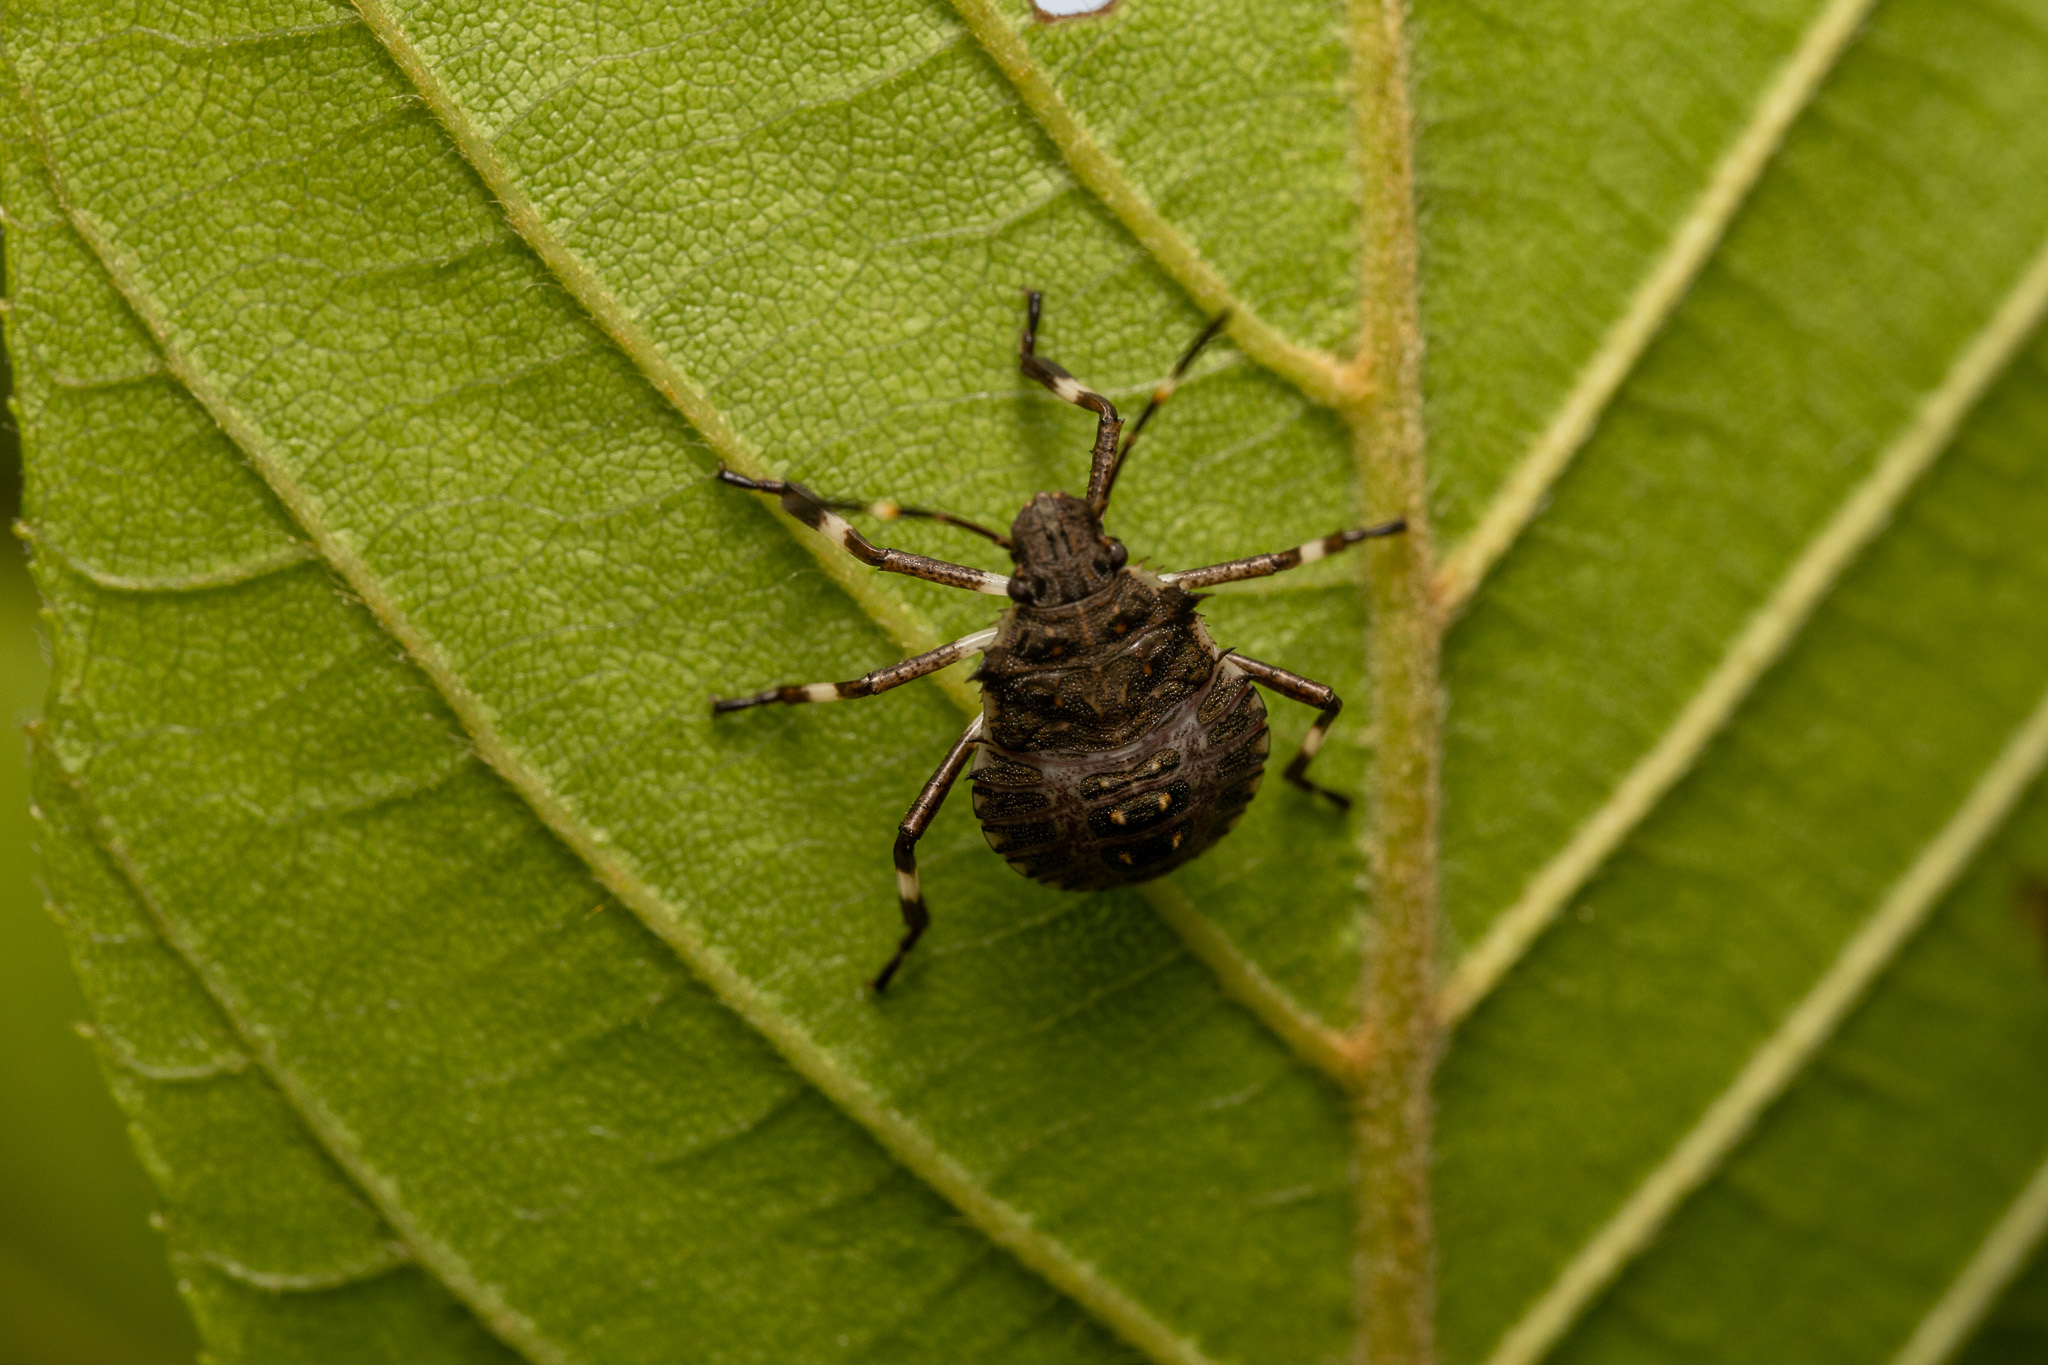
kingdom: Animalia
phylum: Arthropoda
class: Insecta
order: Hemiptera
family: Pentatomidae
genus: Halyomorpha
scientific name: Halyomorpha halys
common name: Brown marmorated stink bug
